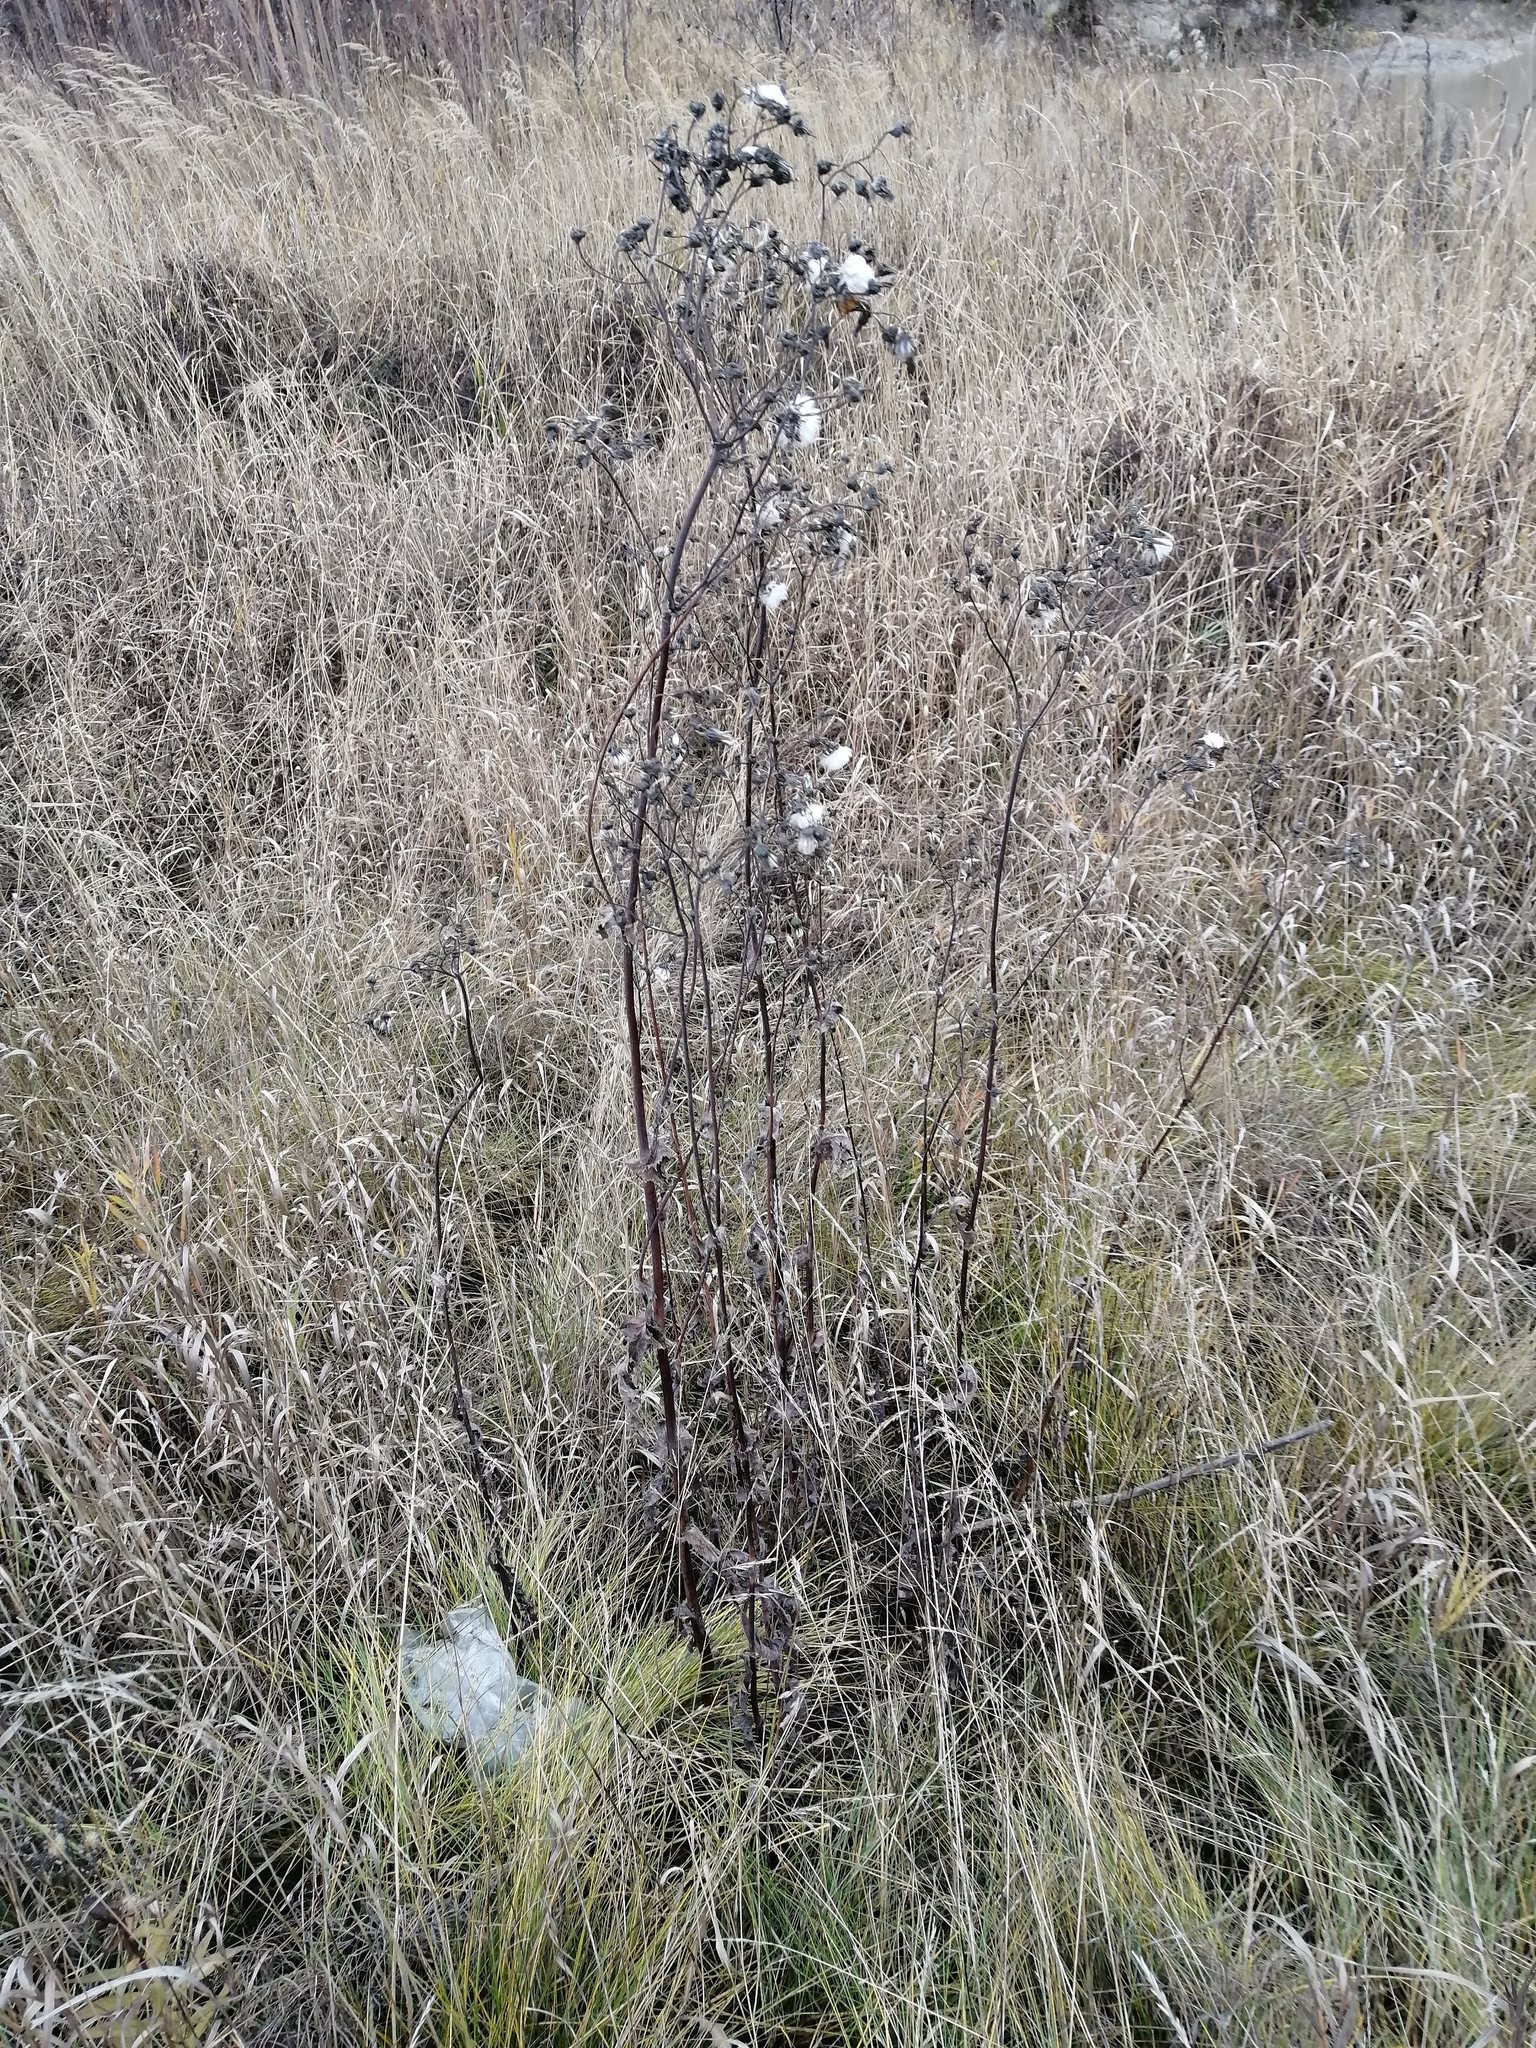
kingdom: Plantae
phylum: Tracheophyta
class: Magnoliopsida
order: Asterales
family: Asteraceae
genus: Cirsium
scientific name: Cirsium arvense
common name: Creeping thistle
